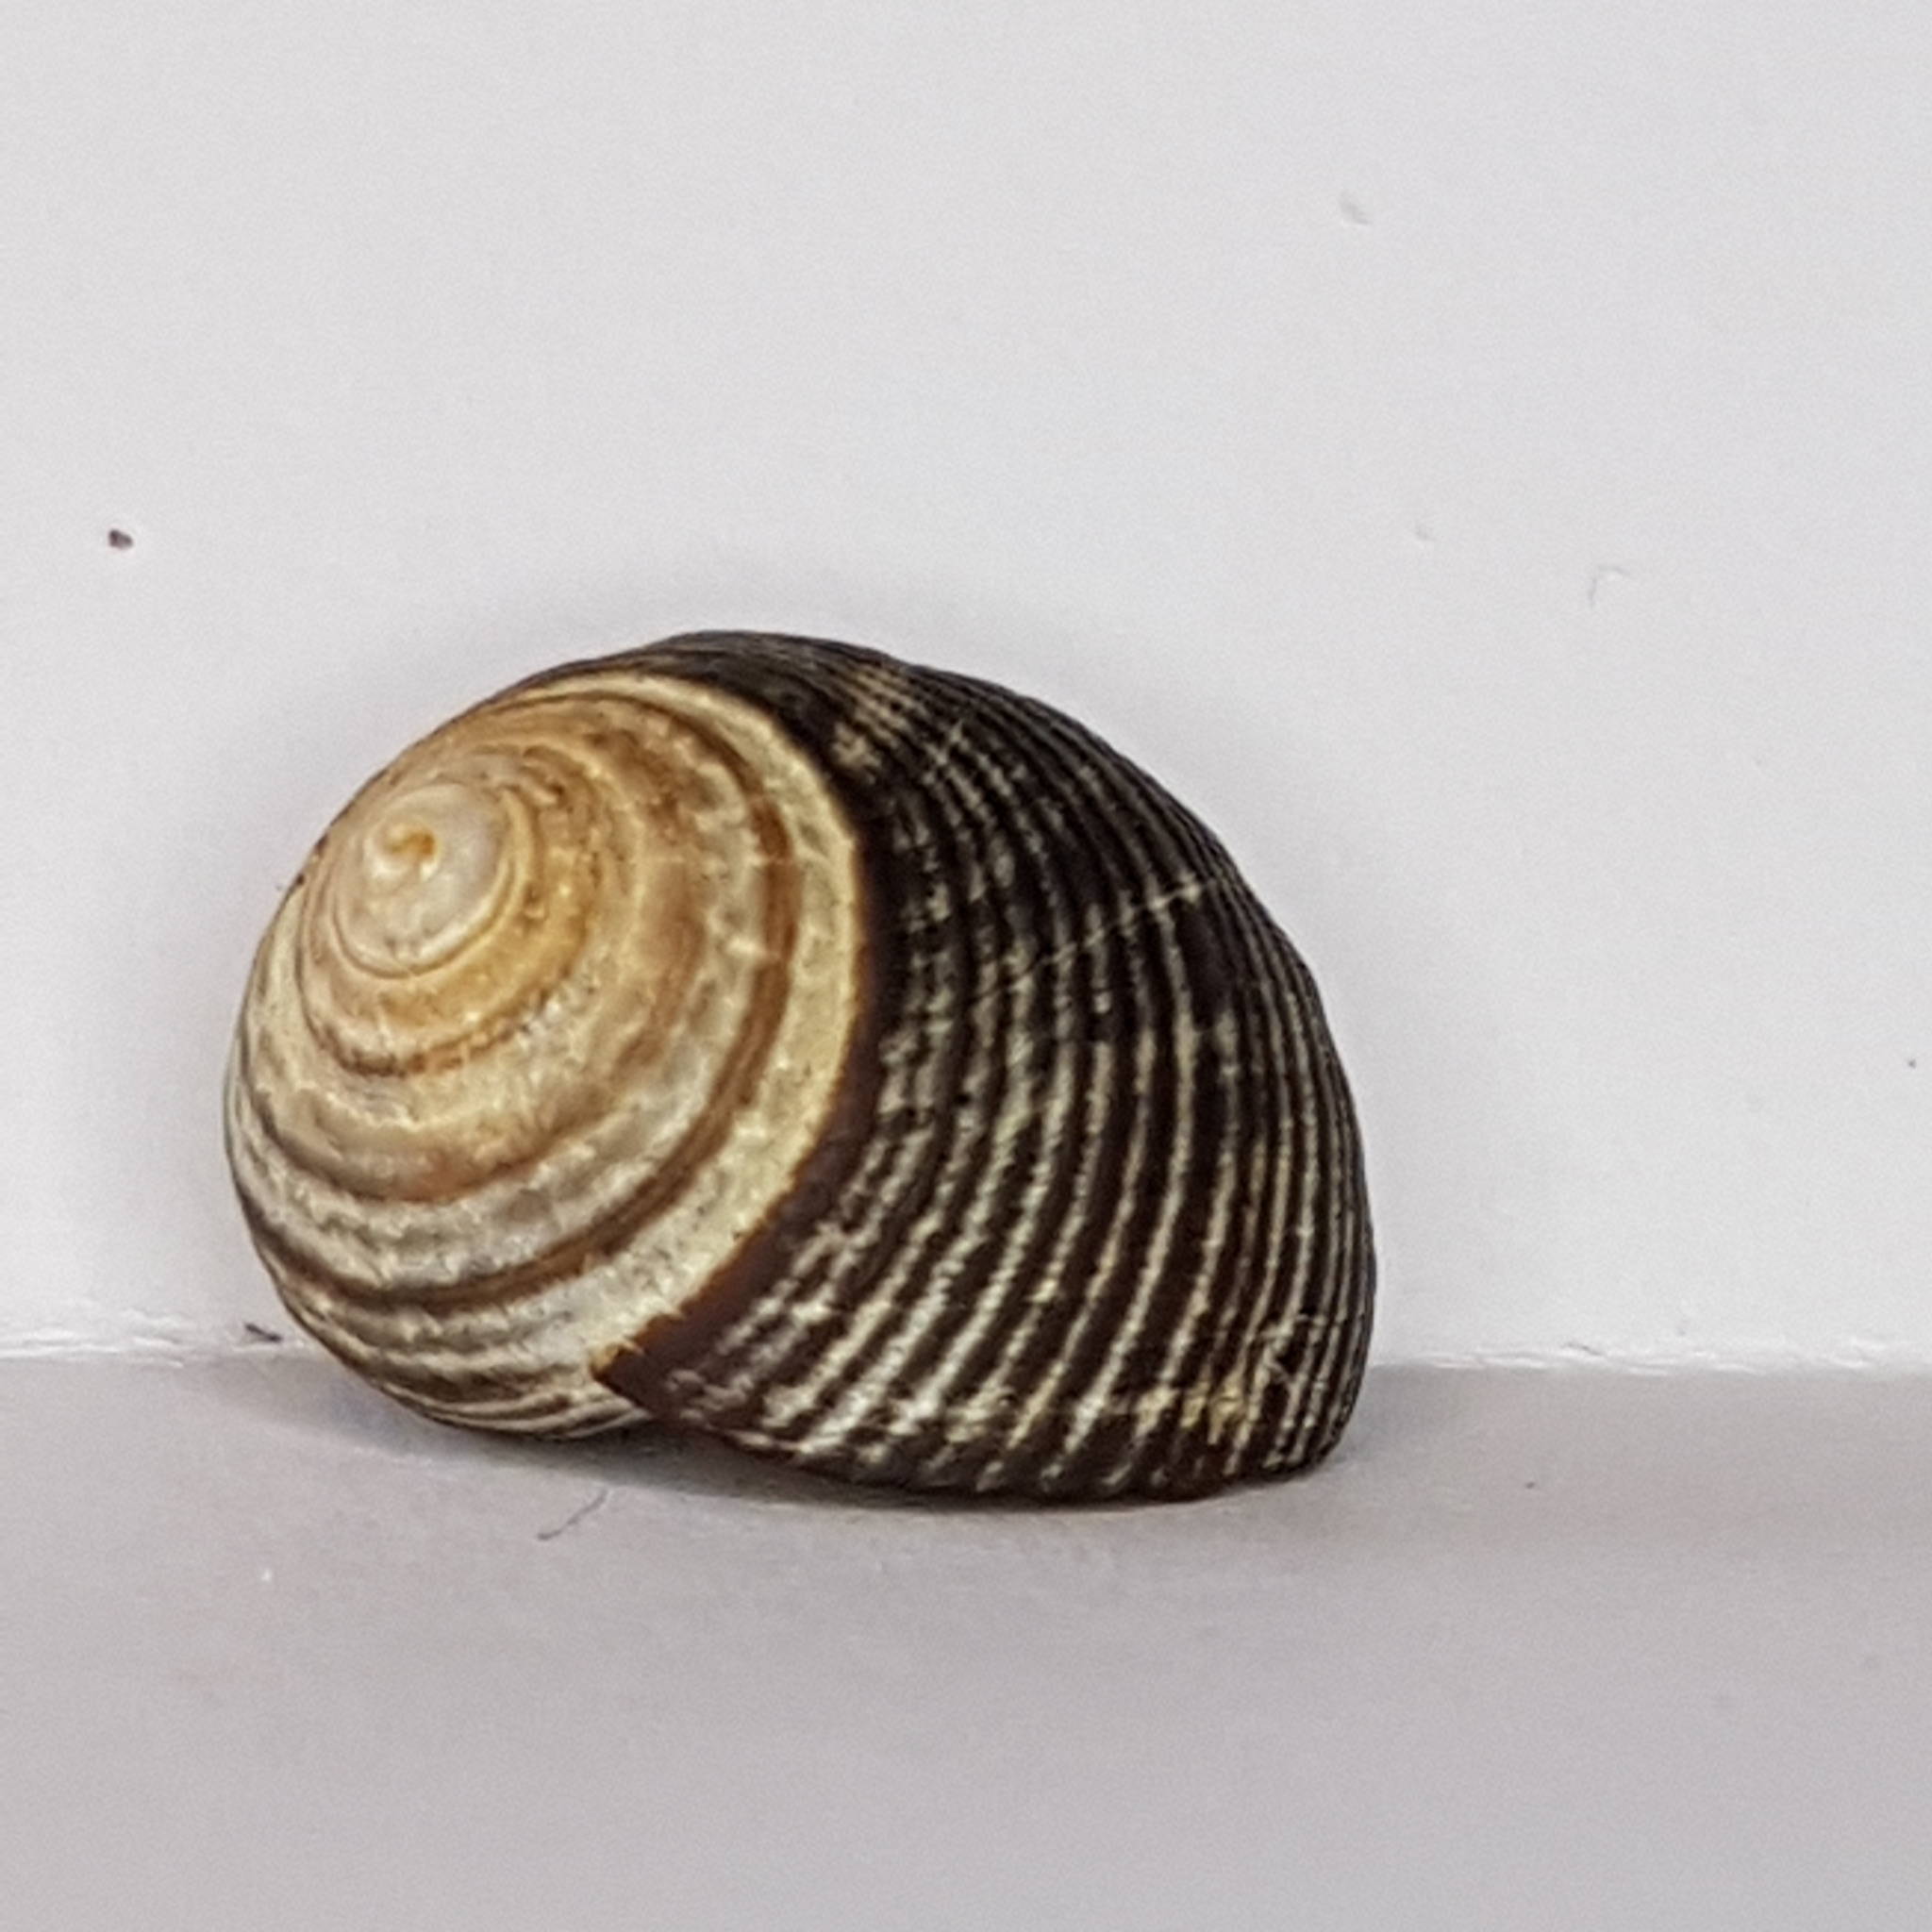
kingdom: Animalia
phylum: Mollusca
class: Gastropoda
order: Littorinimorpha
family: Littorinidae
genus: Littorina
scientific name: Littorina littorea
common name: Common periwinkle
